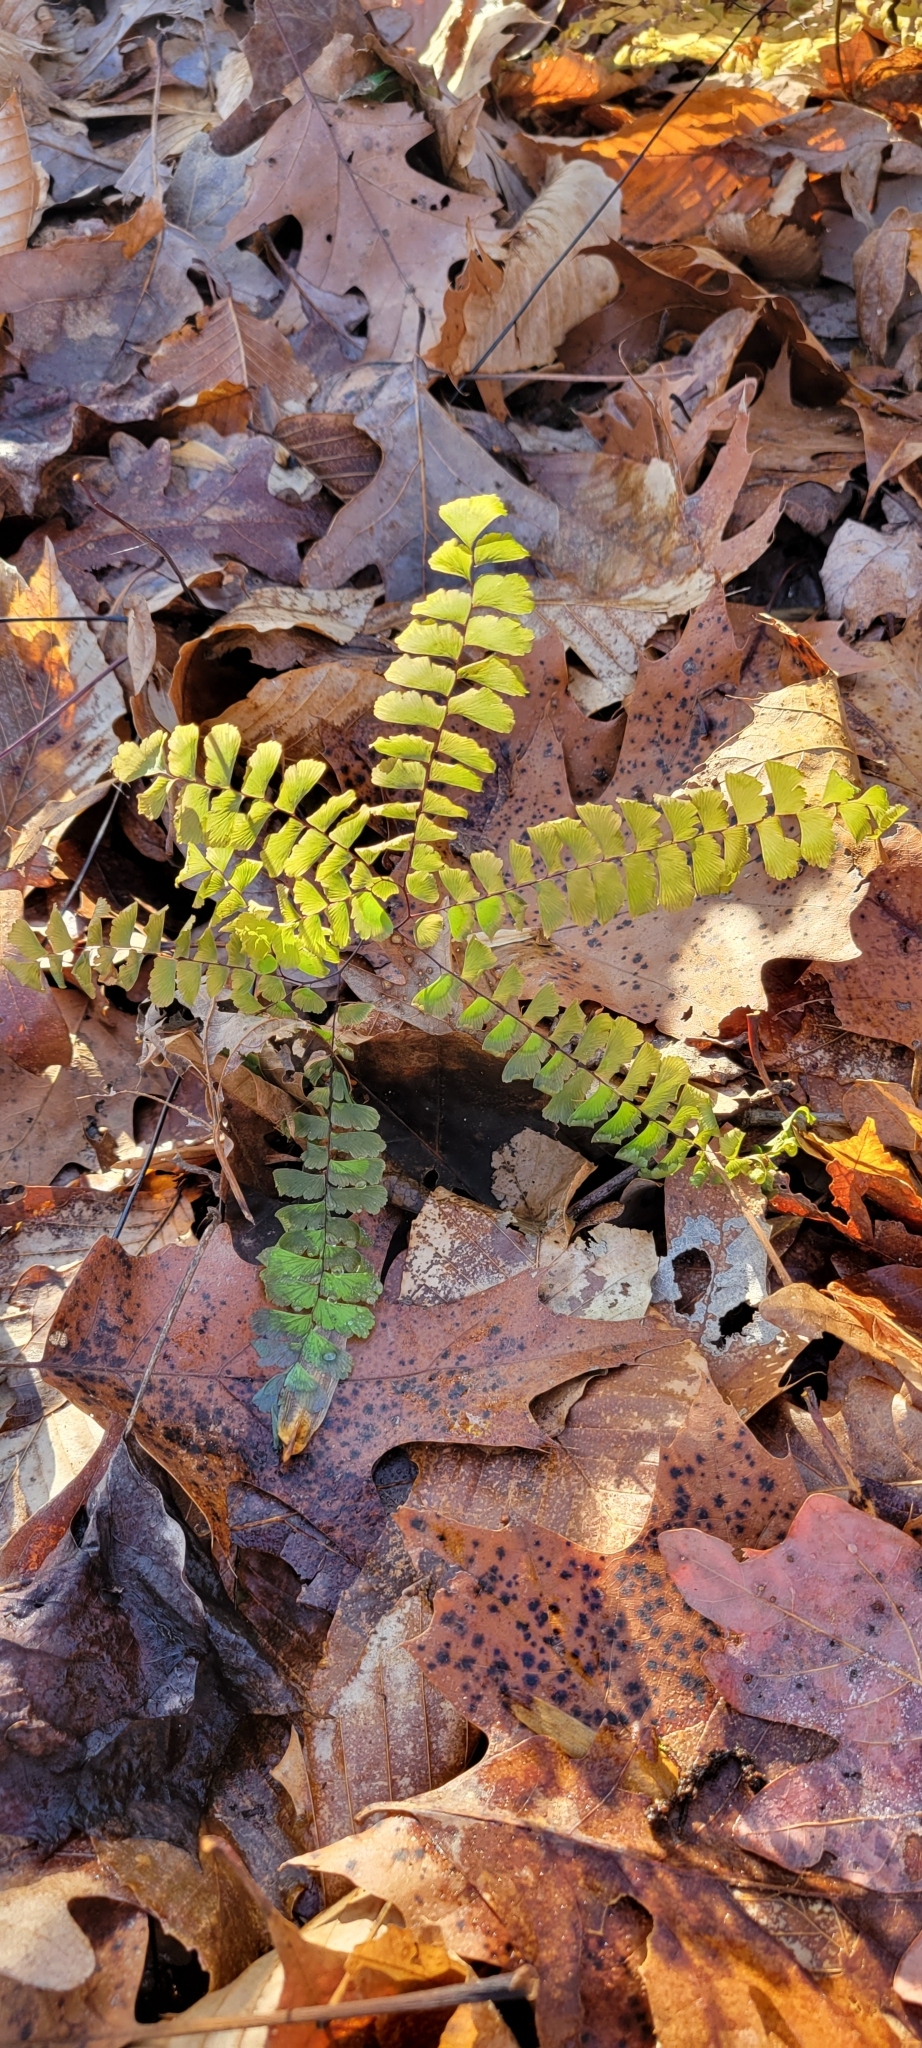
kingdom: Plantae
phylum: Tracheophyta
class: Polypodiopsida
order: Polypodiales
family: Pteridaceae
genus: Adiantum
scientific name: Adiantum pedatum
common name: Five-finger fern
